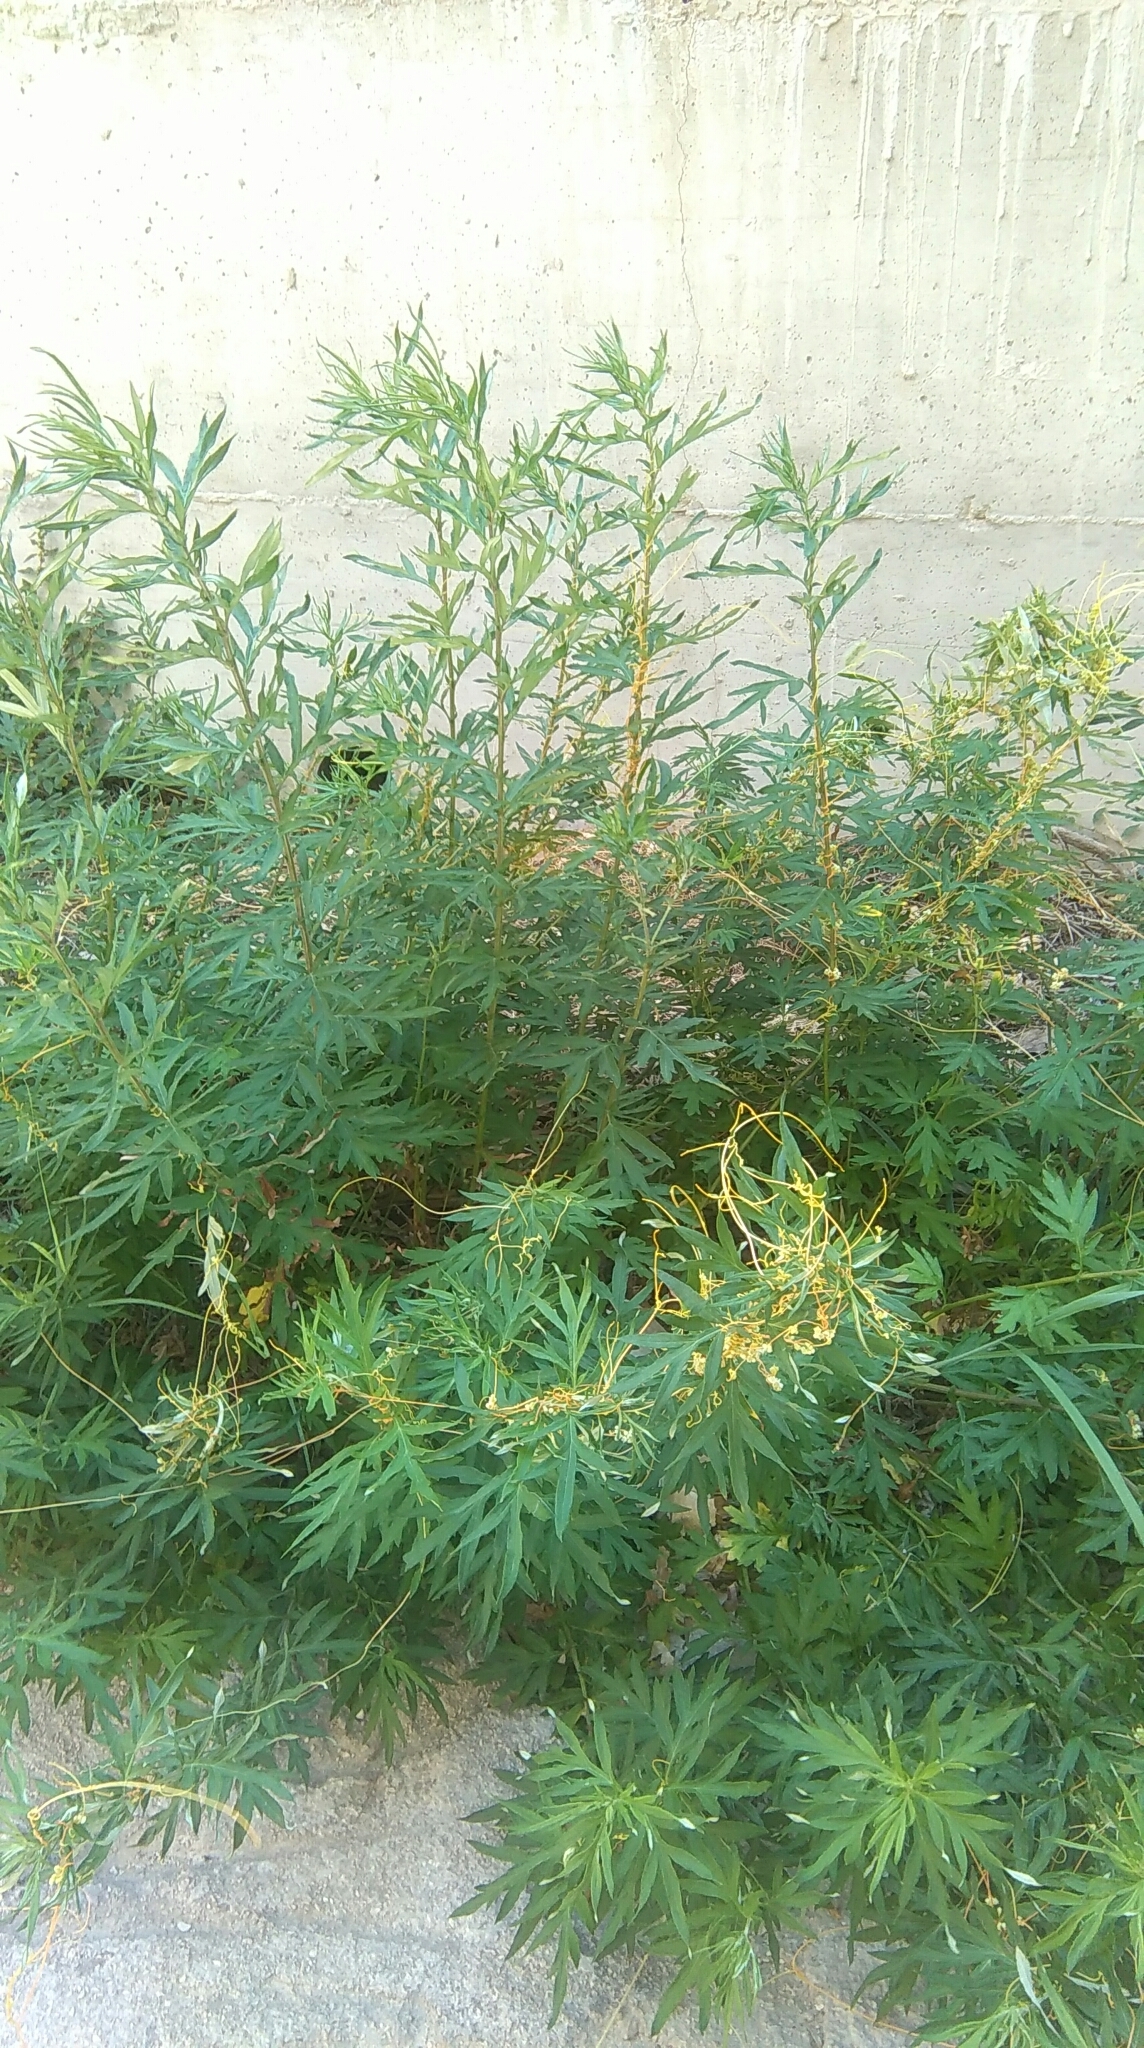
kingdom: Plantae
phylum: Tracheophyta
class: Magnoliopsida
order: Asterales
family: Asteraceae
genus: Artemisia
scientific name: Artemisia vulgaris
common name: Mugwort
